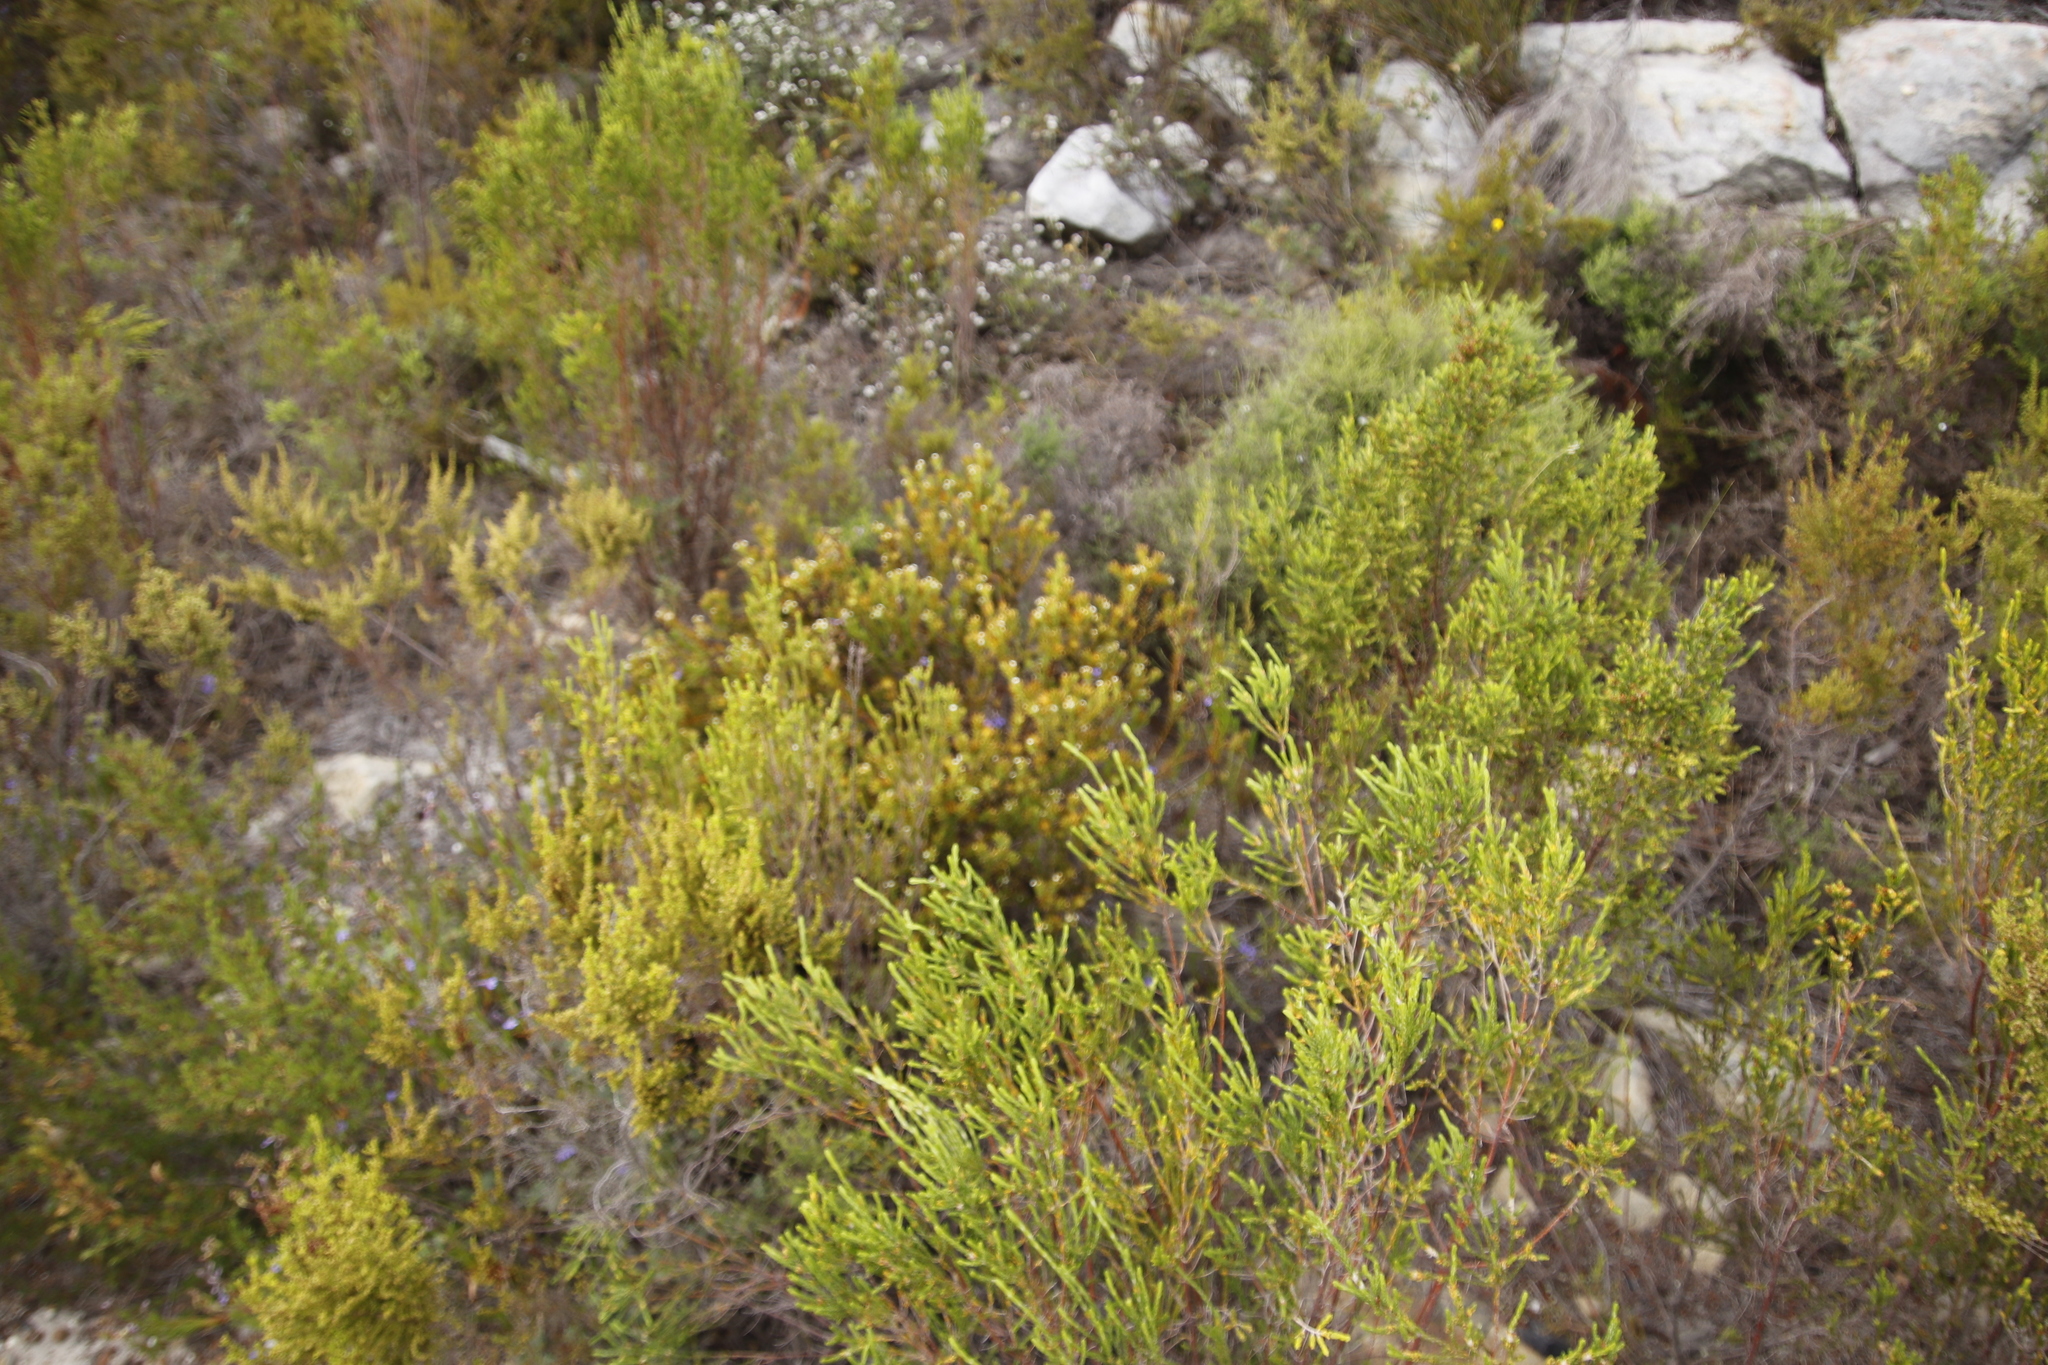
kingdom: Plantae
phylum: Tracheophyta
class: Magnoliopsida
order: Santalales
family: Thesiaceae
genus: Thesium
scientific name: Thesium viridifolium
